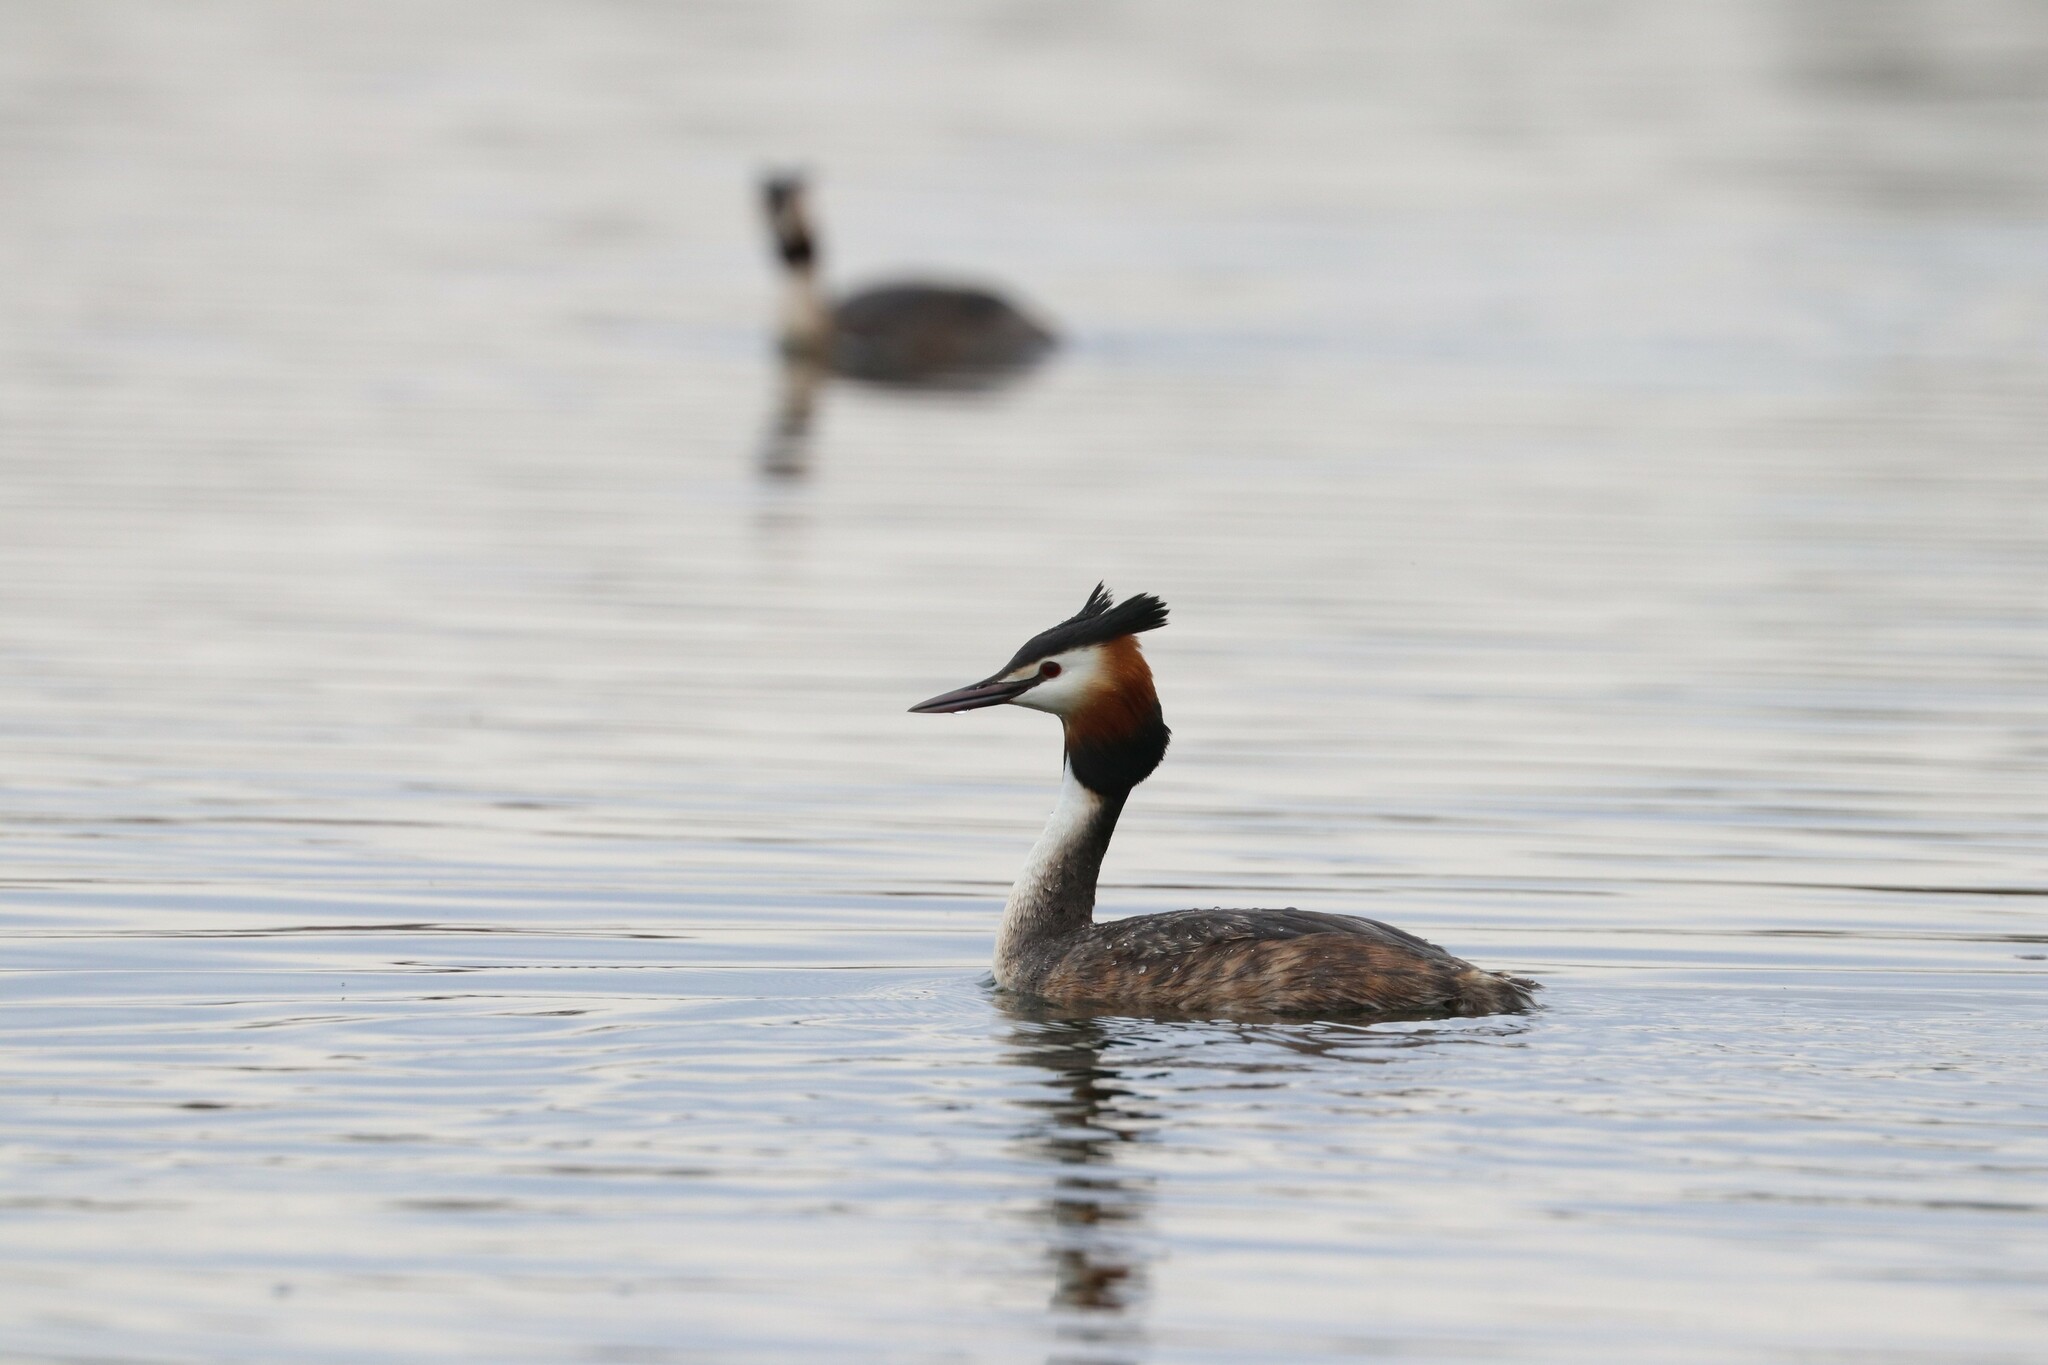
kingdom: Animalia
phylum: Chordata
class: Aves
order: Podicipediformes
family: Podicipedidae
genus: Podiceps
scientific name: Podiceps cristatus
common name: Great crested grebe
